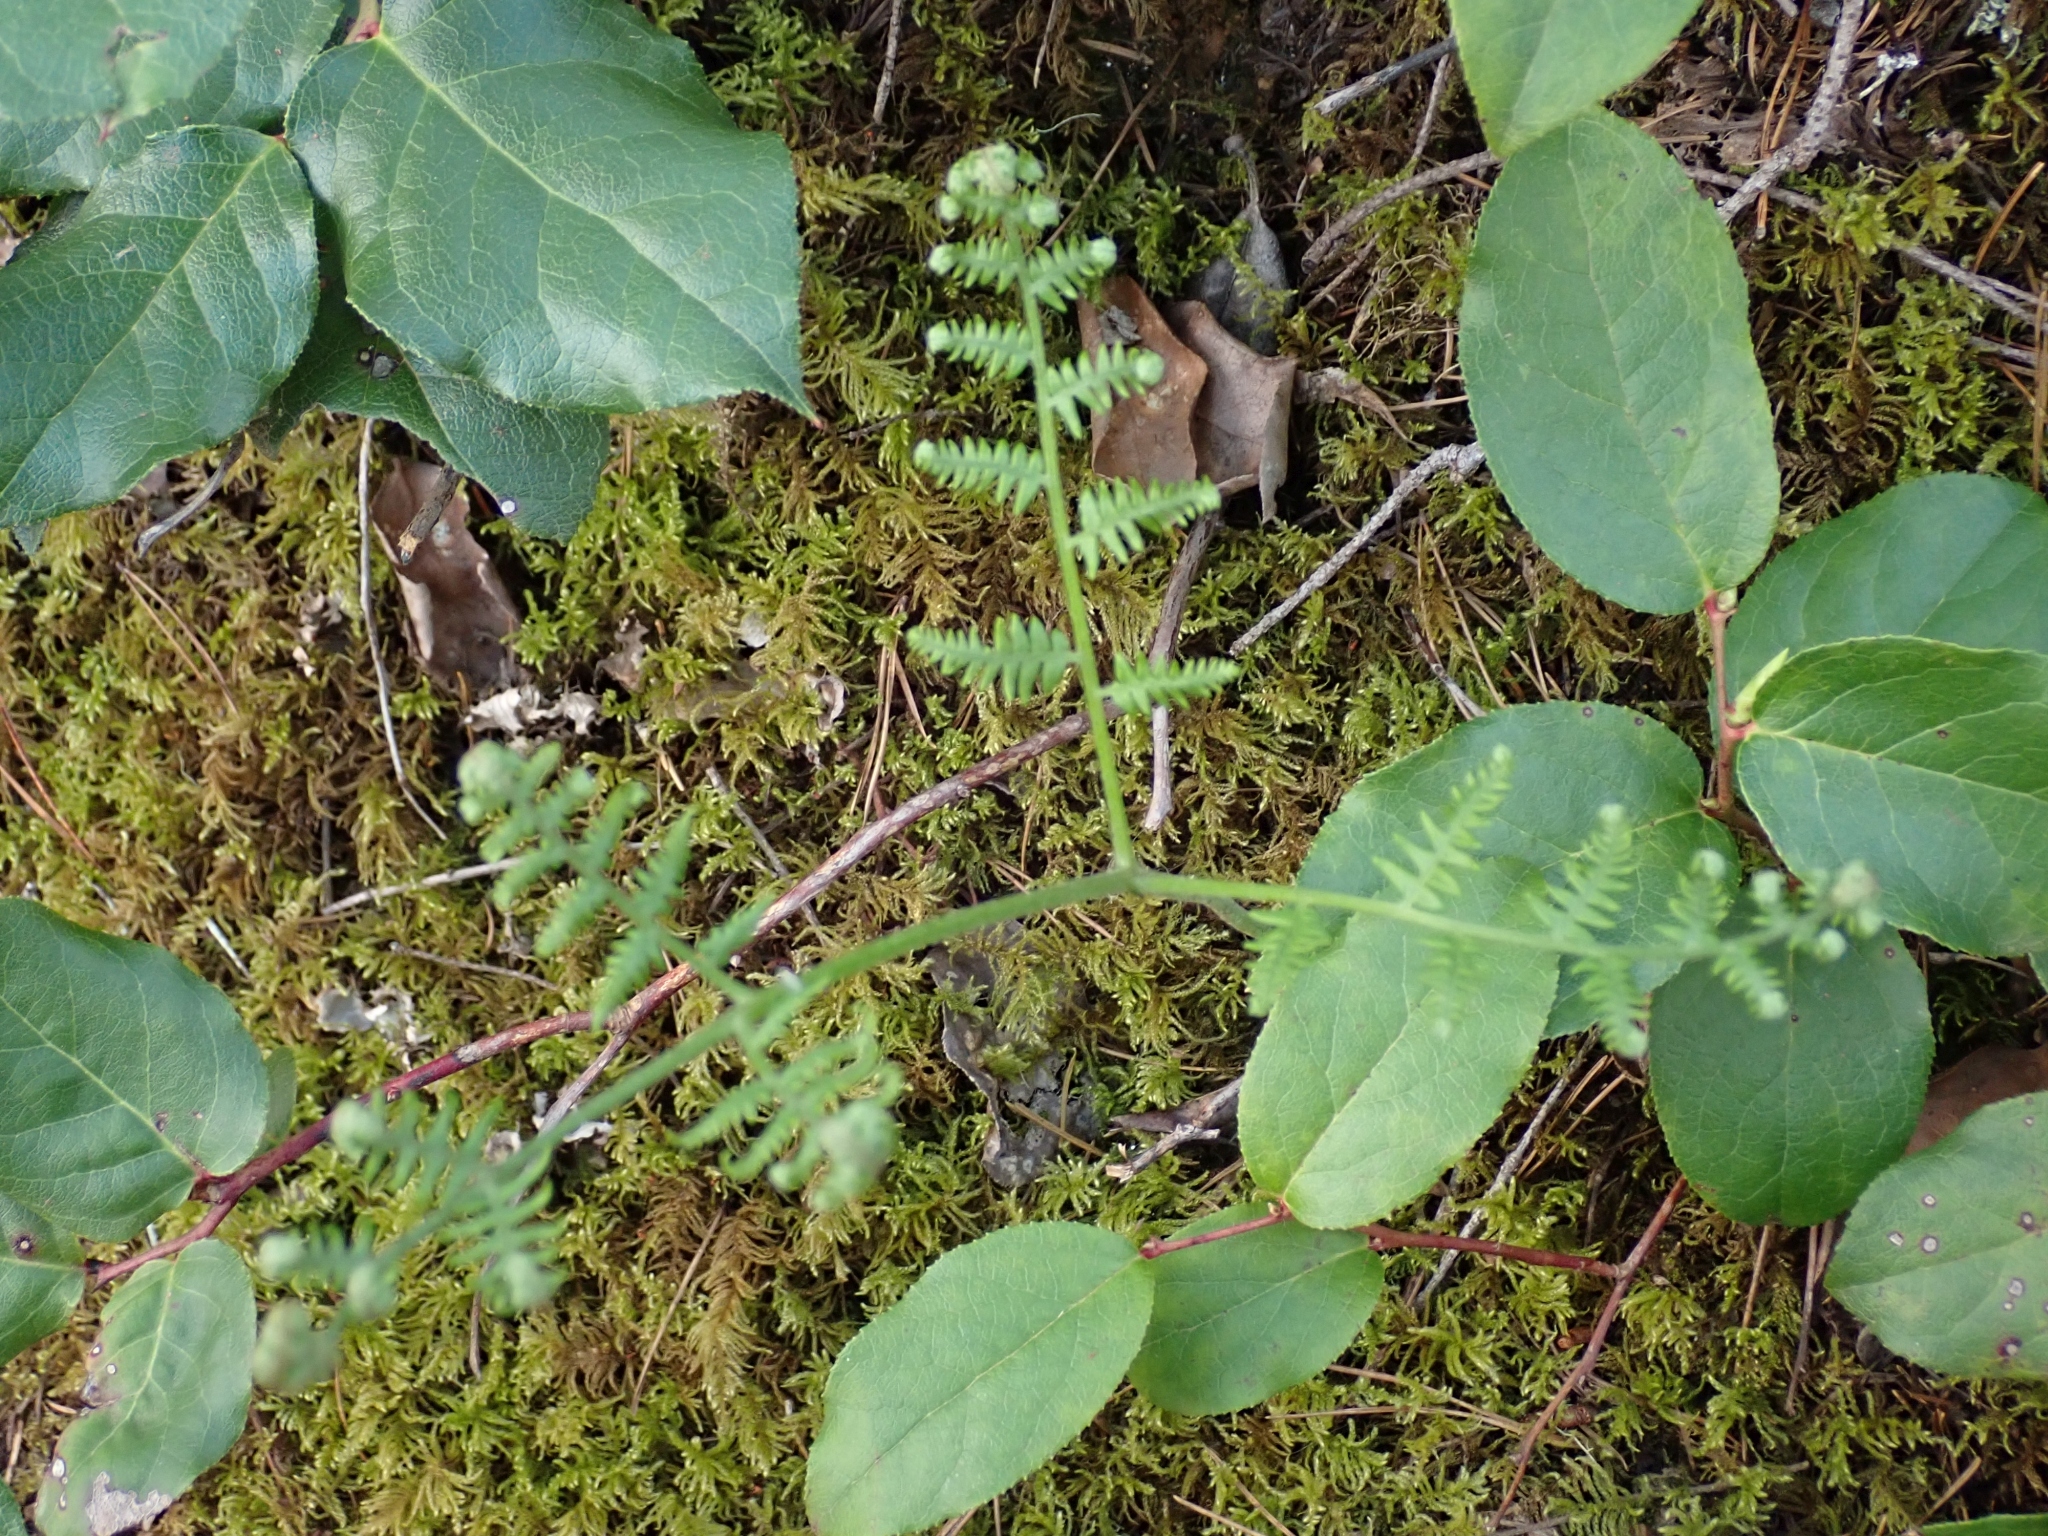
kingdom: Plantae
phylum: Tracheophyta
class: Polypodiopsida
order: Polypodiales
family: Dennstaedtiaceae
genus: Pteridium
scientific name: Pteridium aquilinum
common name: Bracken
